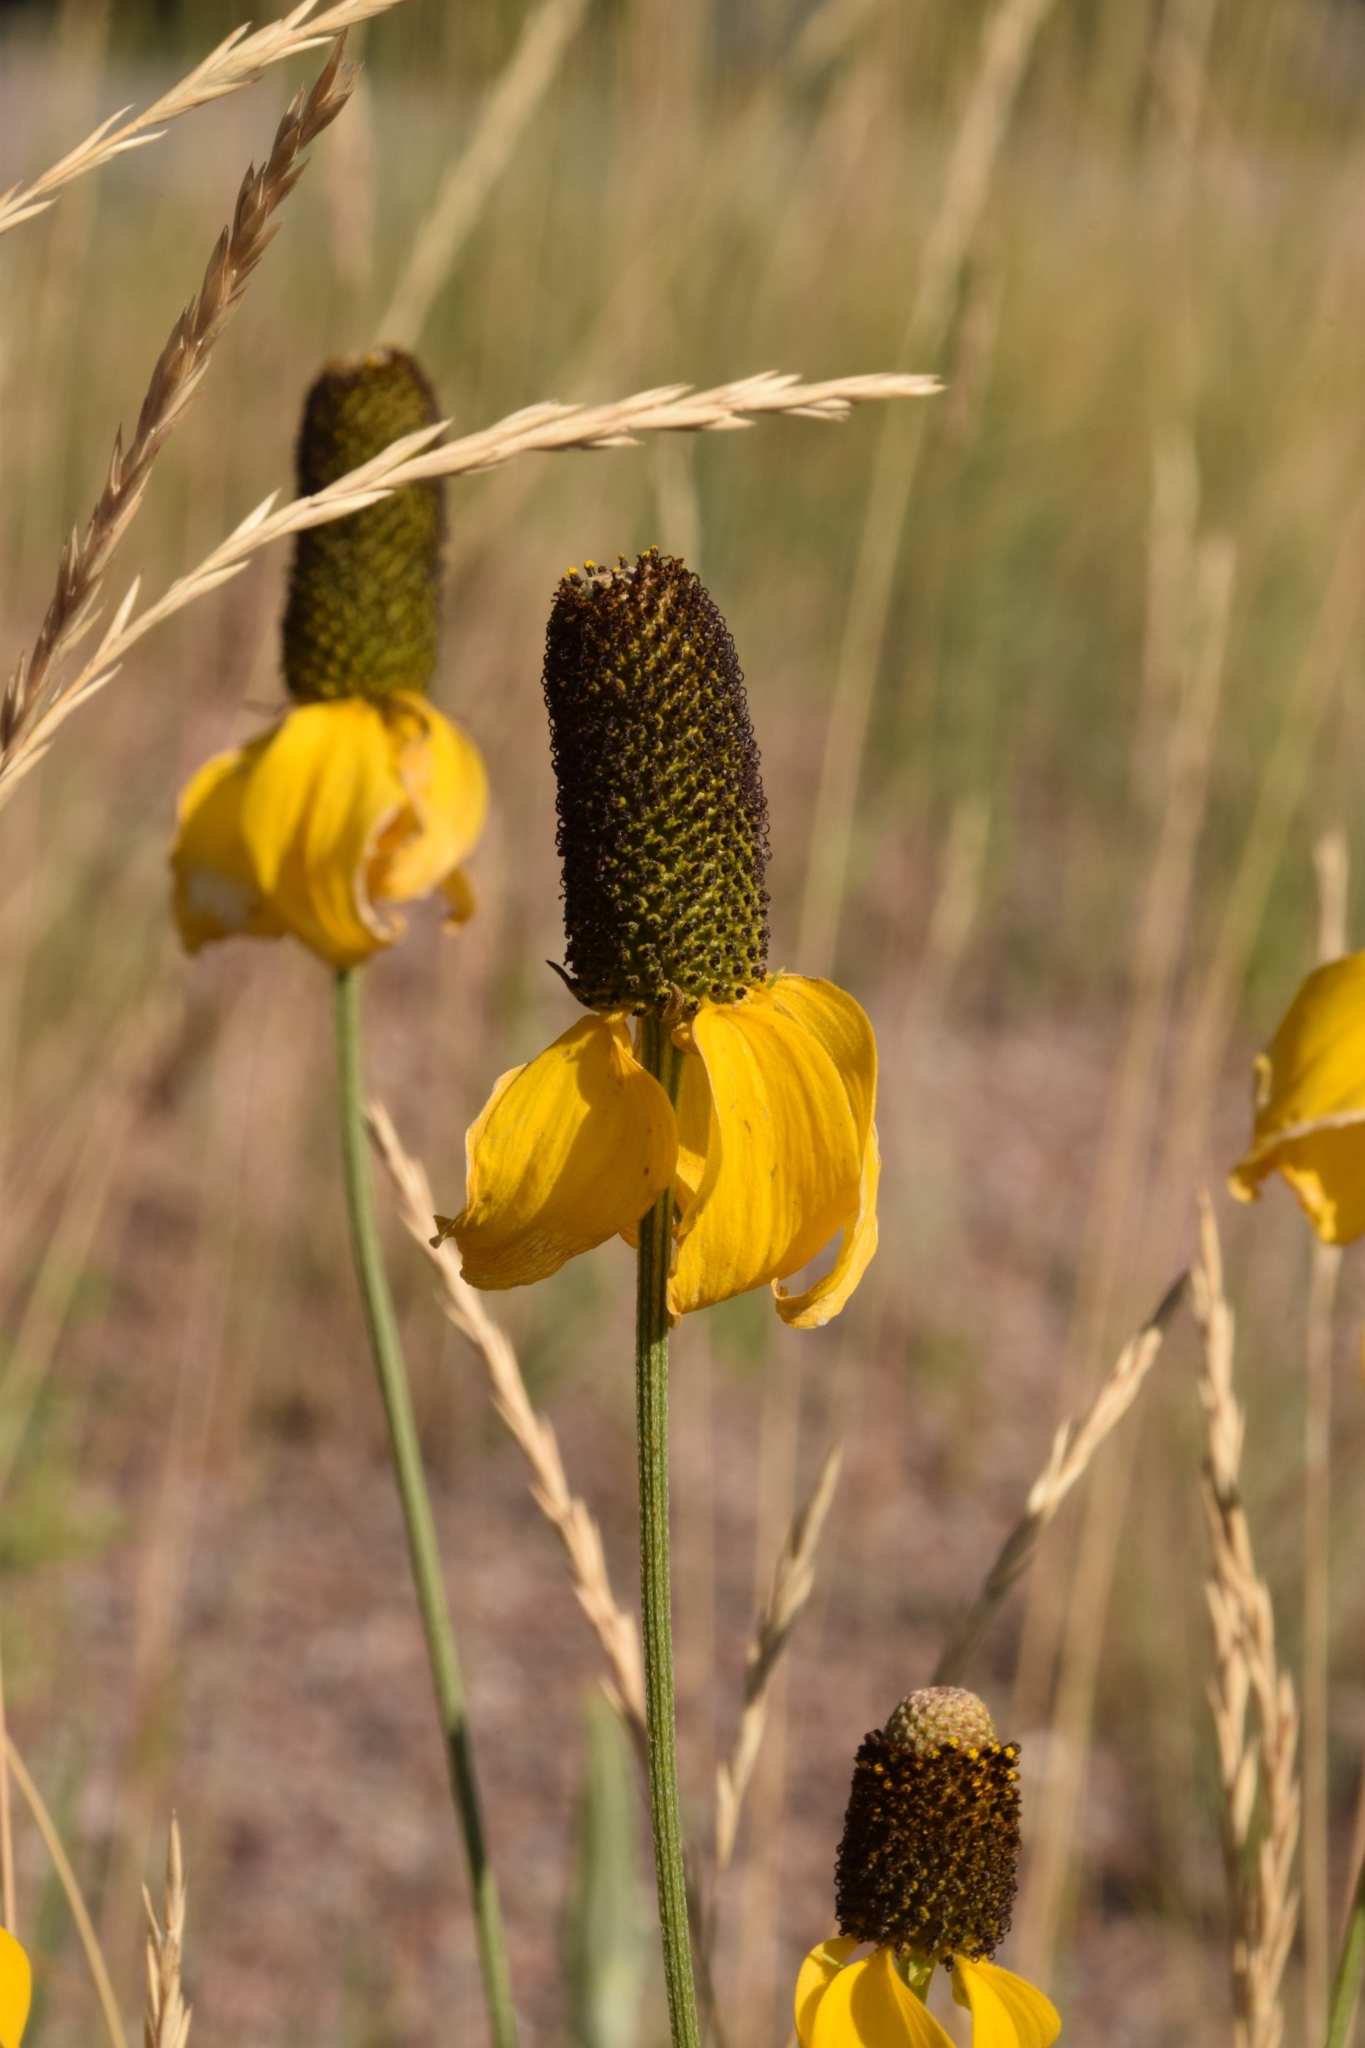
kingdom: Plantae
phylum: Tracheophyta
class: Magnoliopsida
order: Asterales
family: Asteraceae
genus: Ratibida
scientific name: Ratibida columnifera
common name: Prairie coneflower
